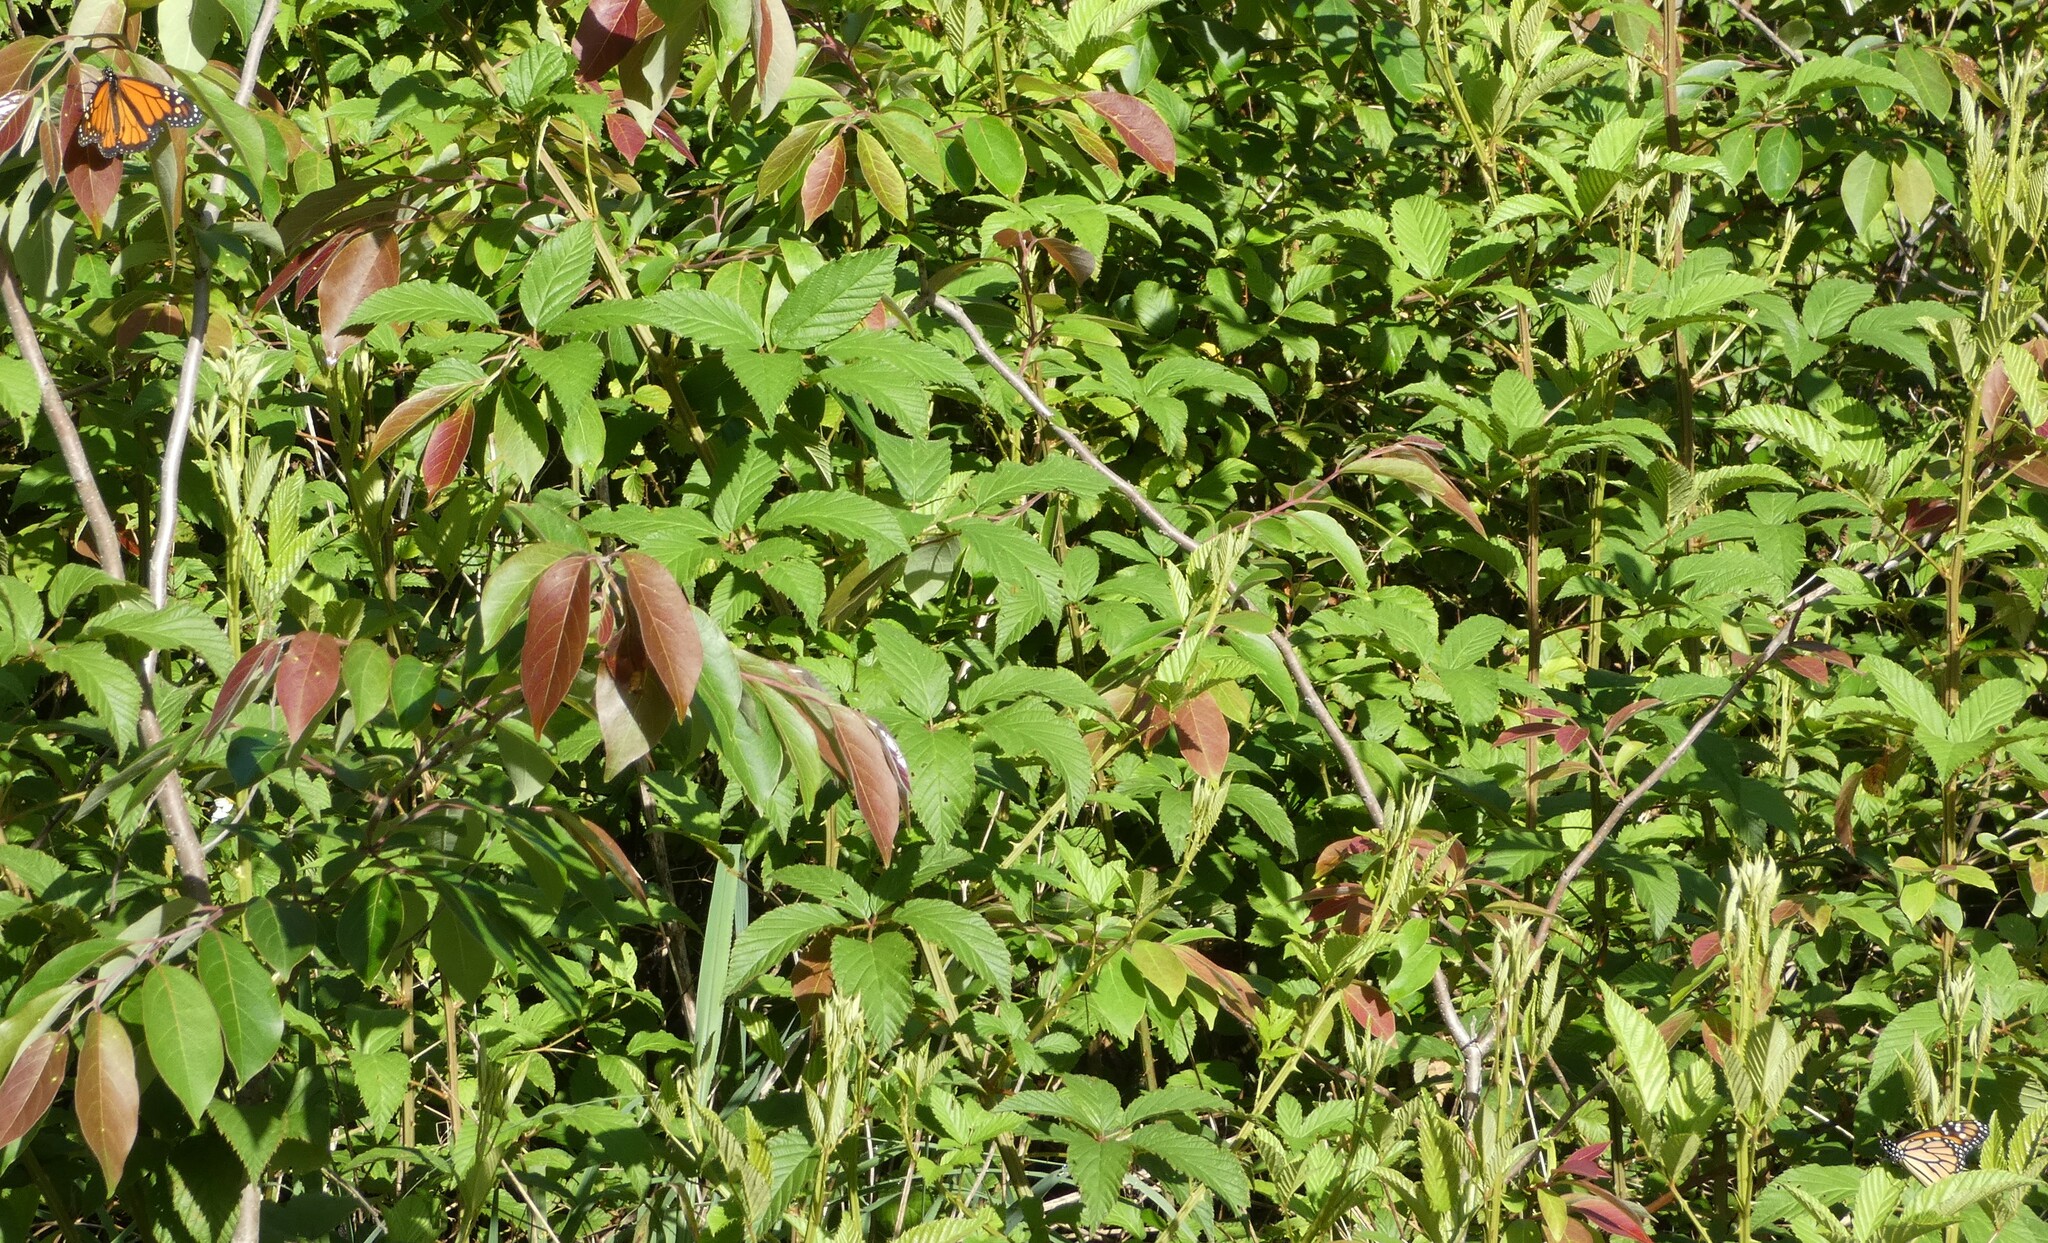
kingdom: Animalia
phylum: Arthropoda
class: Insecta
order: Lepidoptera
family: Nymphalidae
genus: Danaus
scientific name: Danaus plexippus
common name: Monarch
